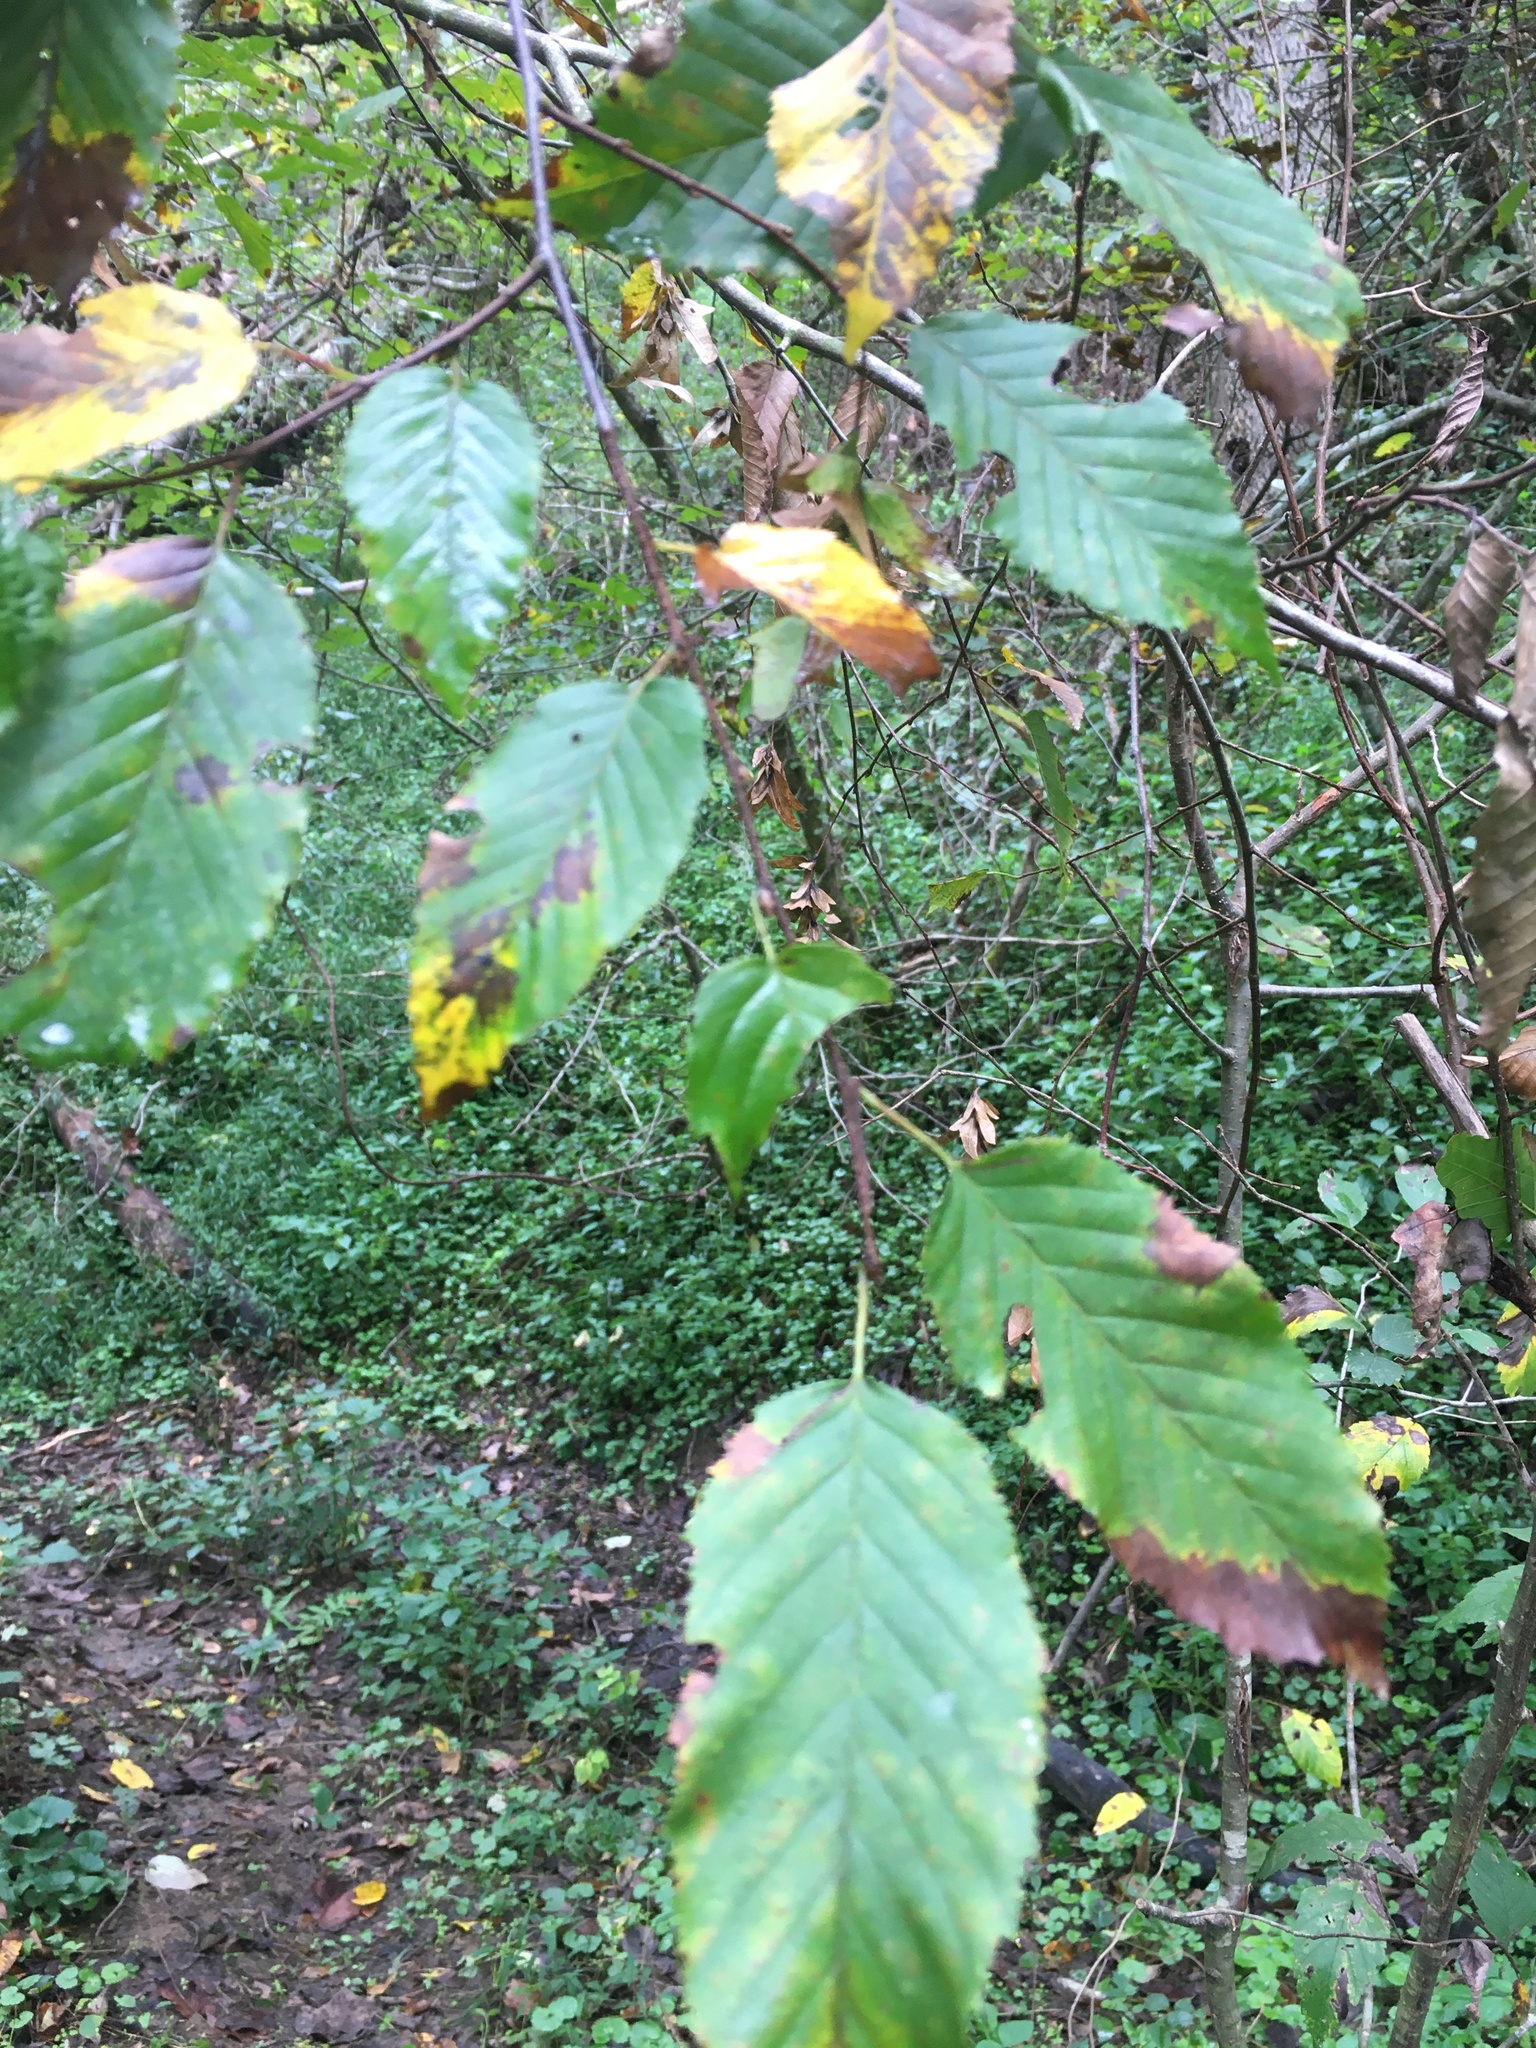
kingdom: Plantae
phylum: Tracheophyta
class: Magnoliopsida
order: Fagales
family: Betulaceae
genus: Carpinus
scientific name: Carpinus caroliniana
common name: American hornbeam
